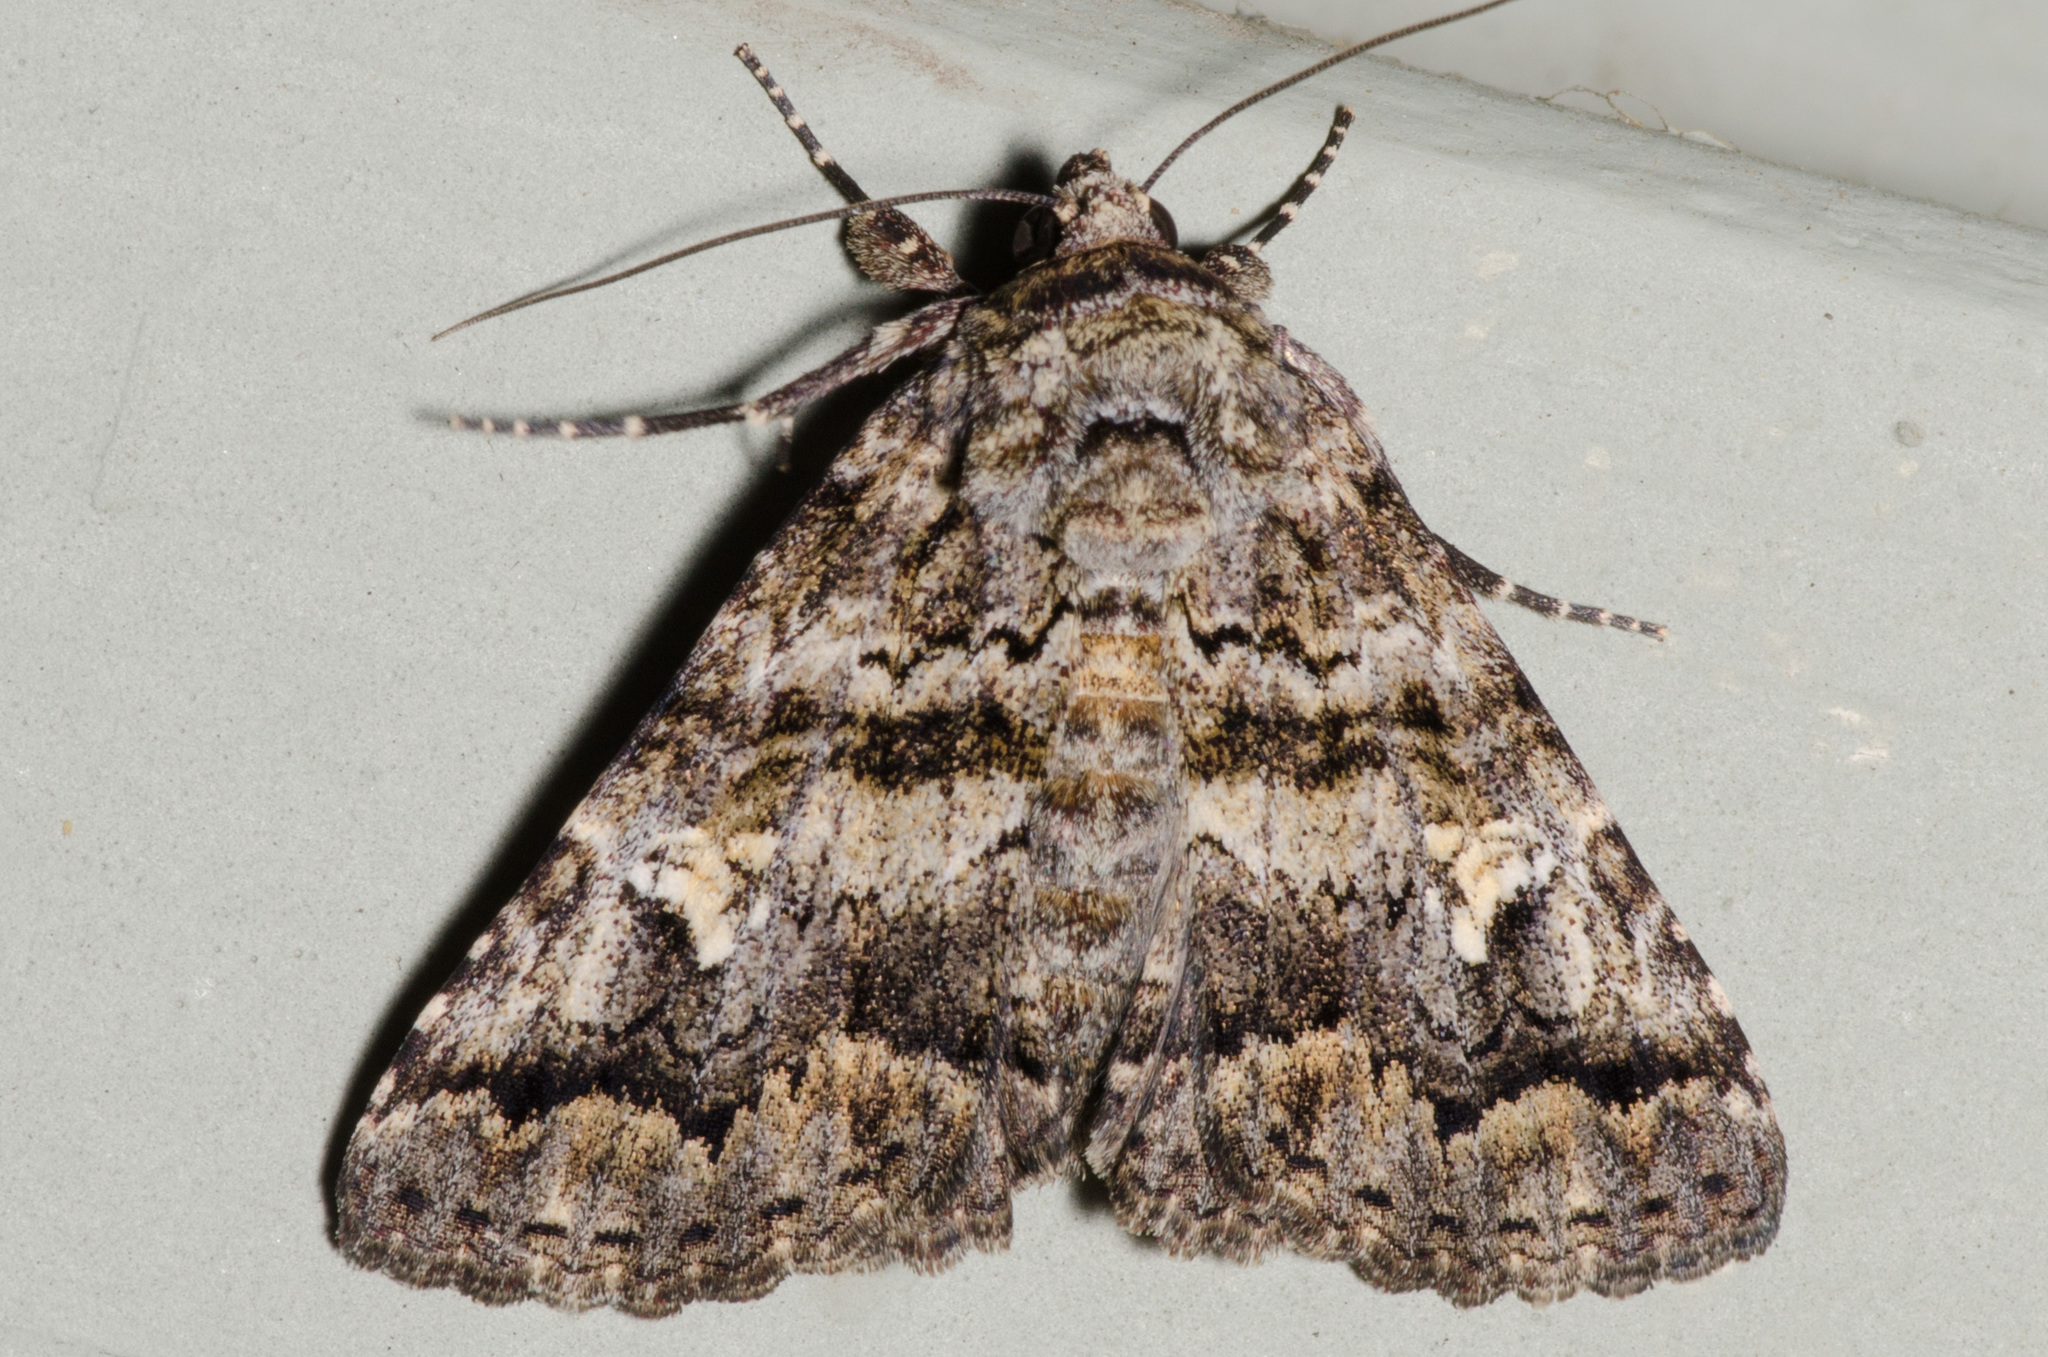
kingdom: Animalia
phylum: Arthropoda
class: Insecta
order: Lepidoptera
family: Erebidae
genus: Metria
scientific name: Metria amella
